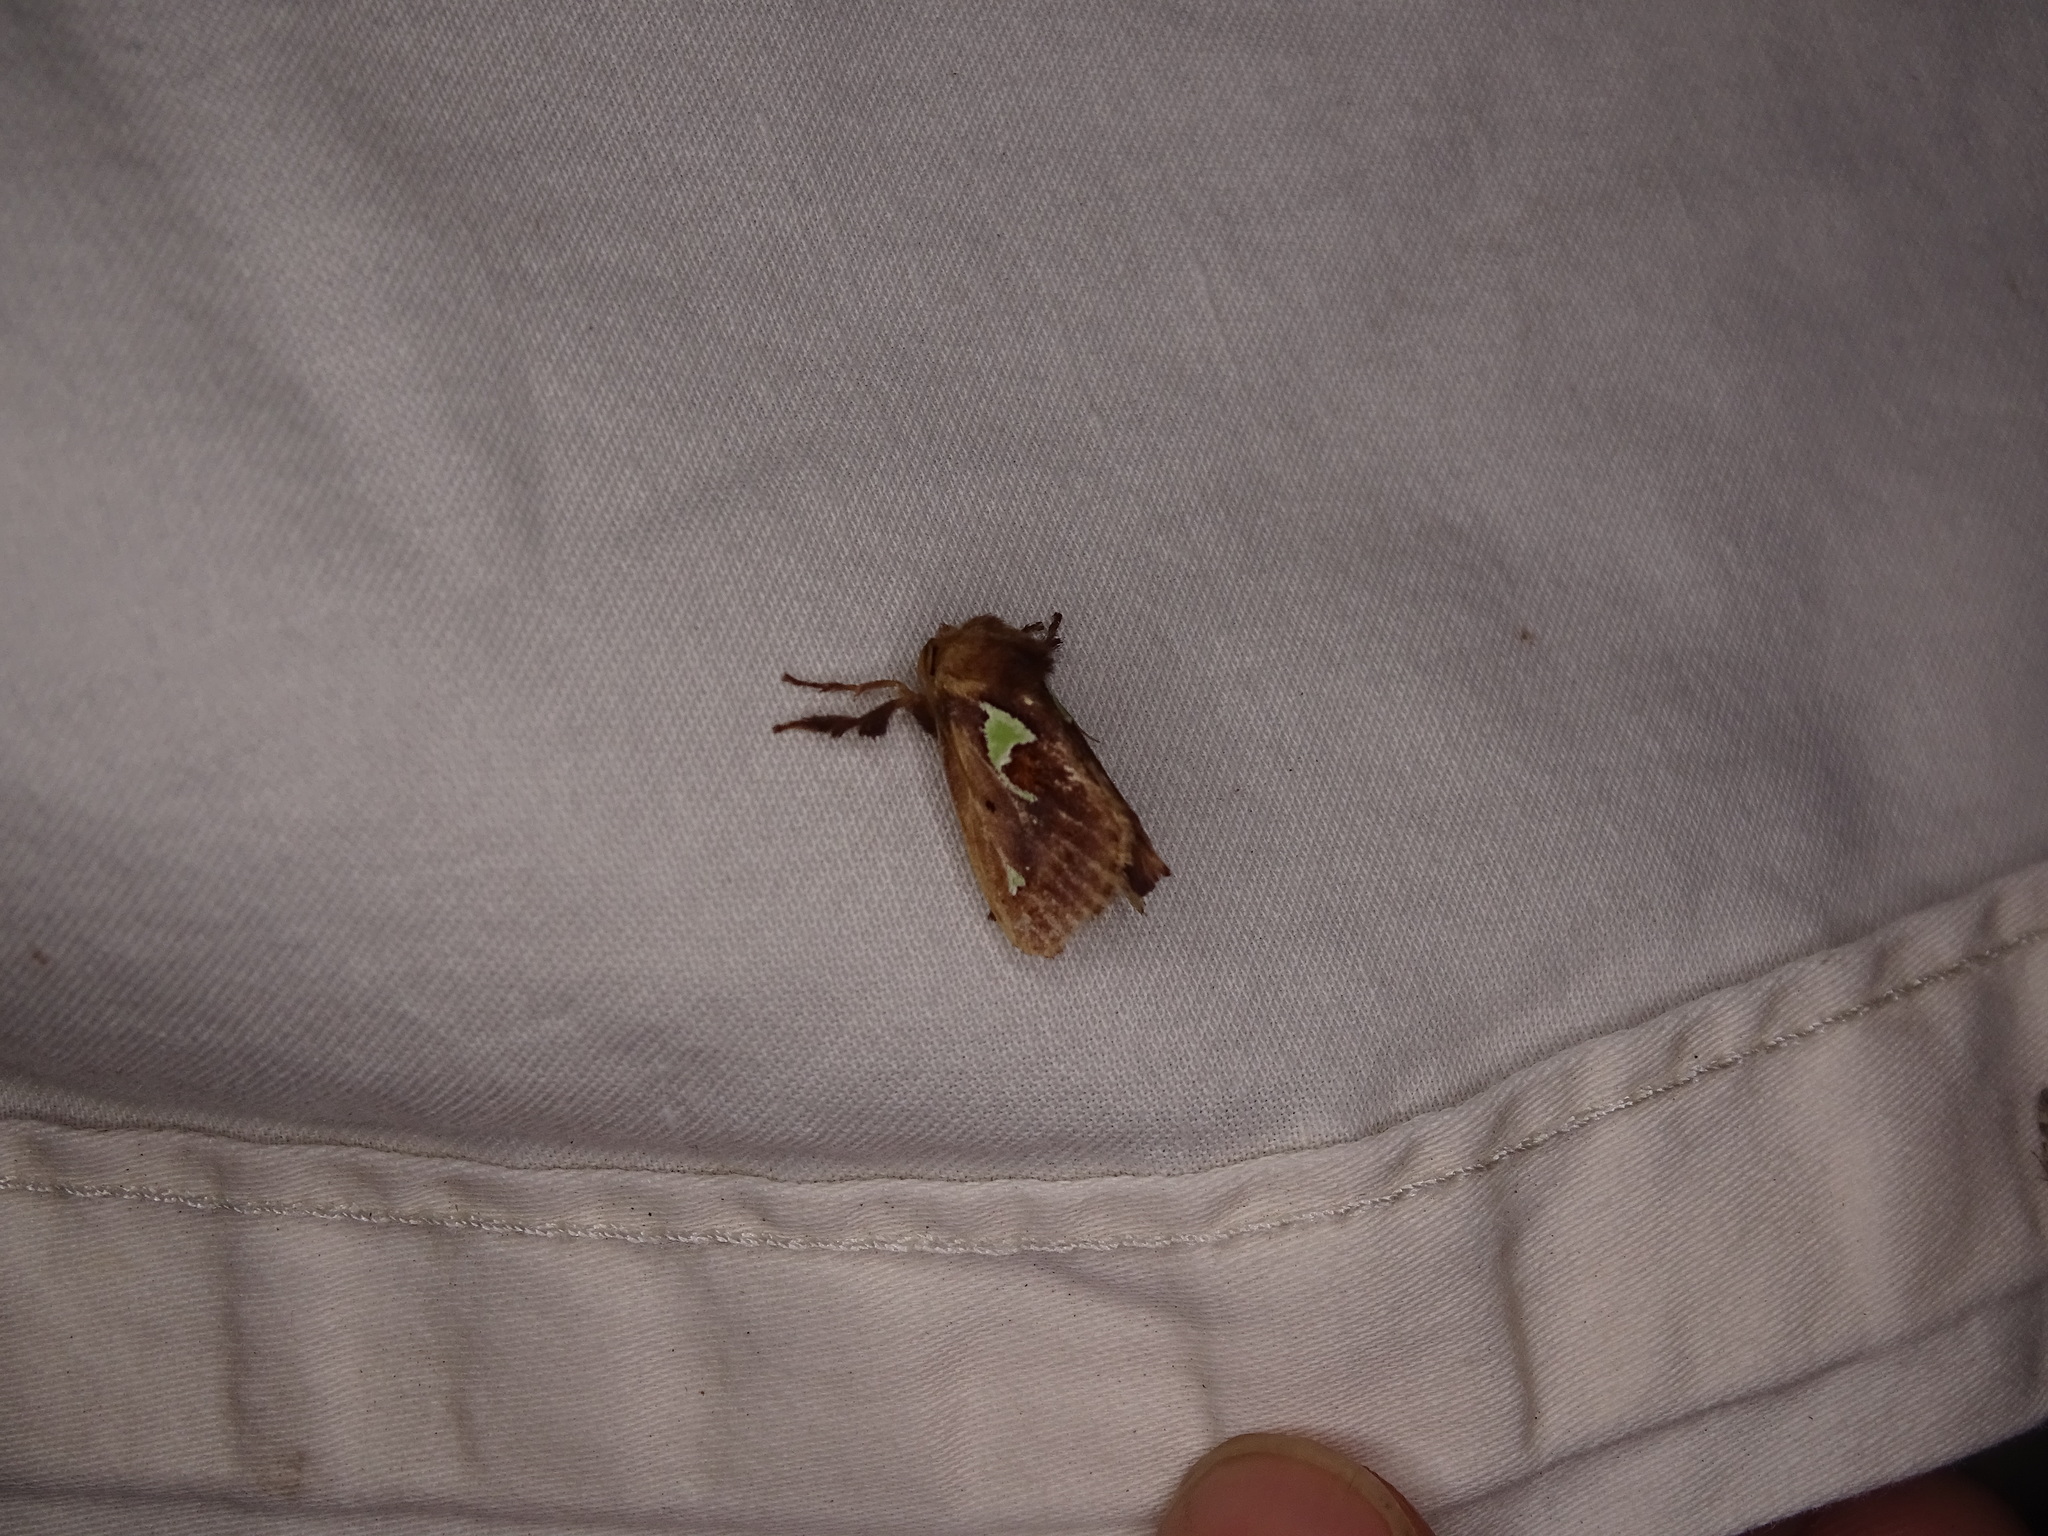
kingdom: Animalia
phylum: Arthropoda
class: Insecta
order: Lepidoptera
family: Limacodidae
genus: Euclea
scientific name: Euclea delphinii
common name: Spiny oak-slug moth
